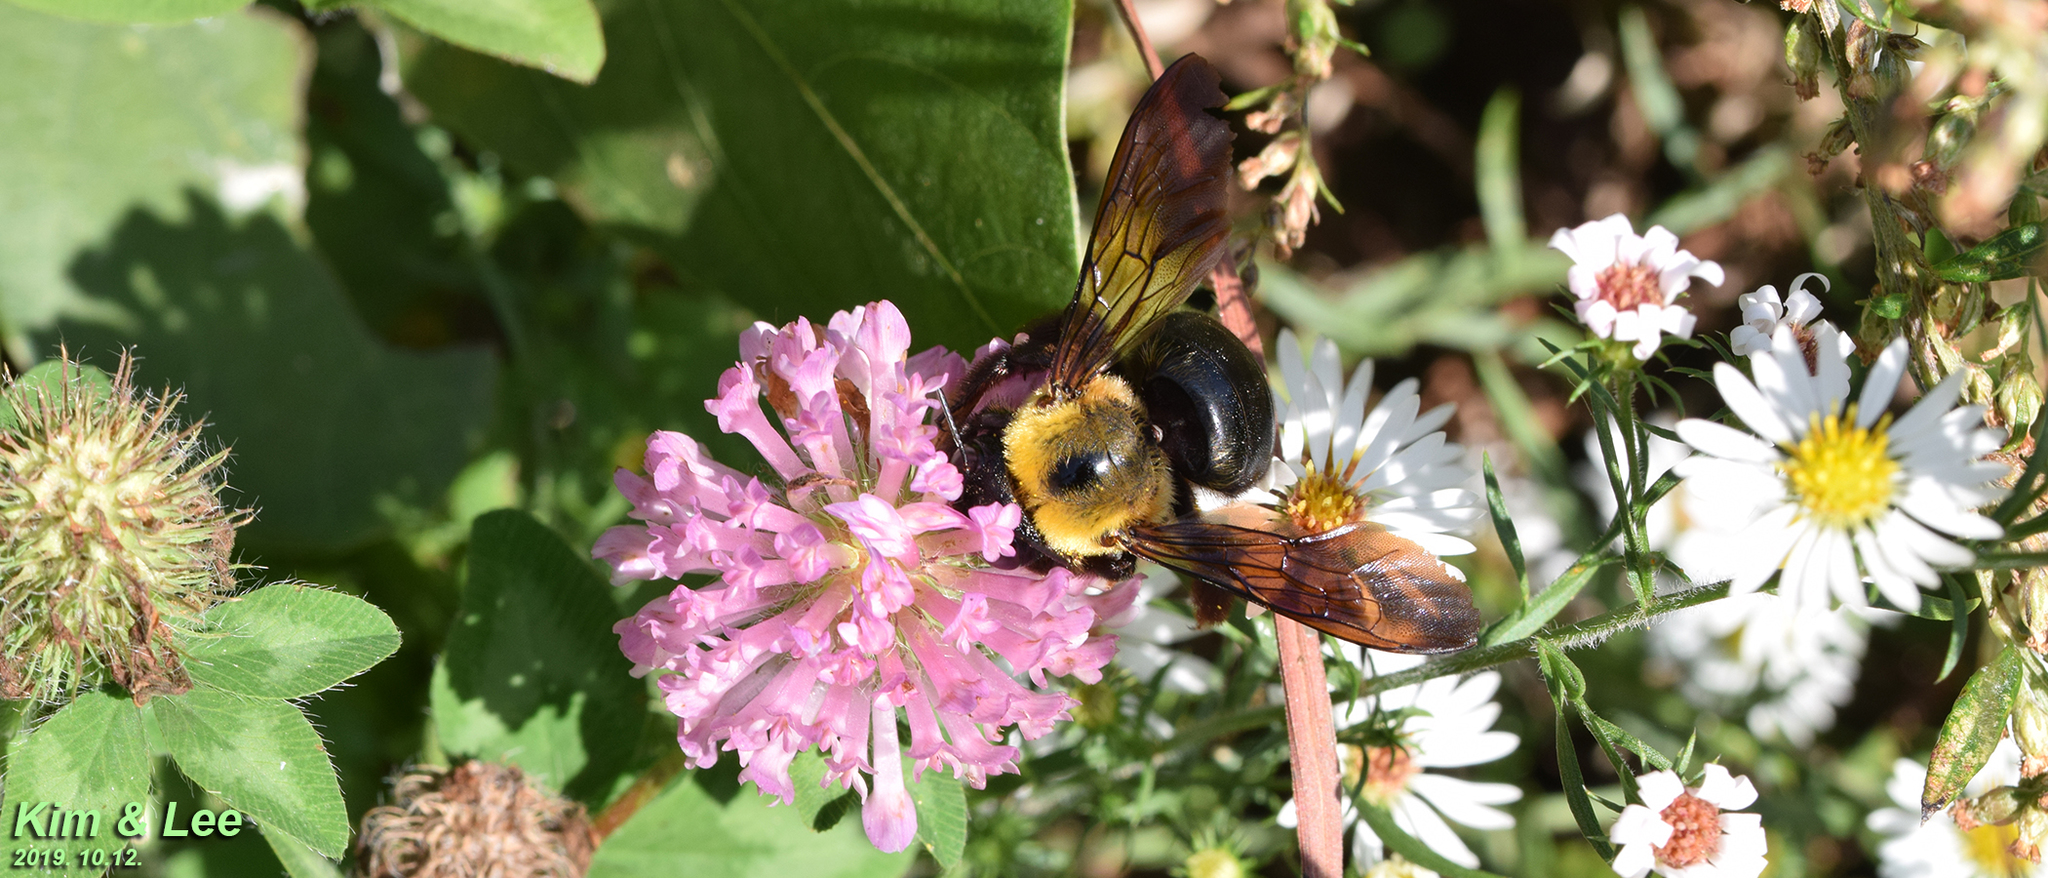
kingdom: Animalia
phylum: Arthropoda
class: Insecta
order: Hymenoptera
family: Apidae
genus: Xylocopa
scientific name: Xylocopa appendiculata
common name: Japanese carpenter bee
